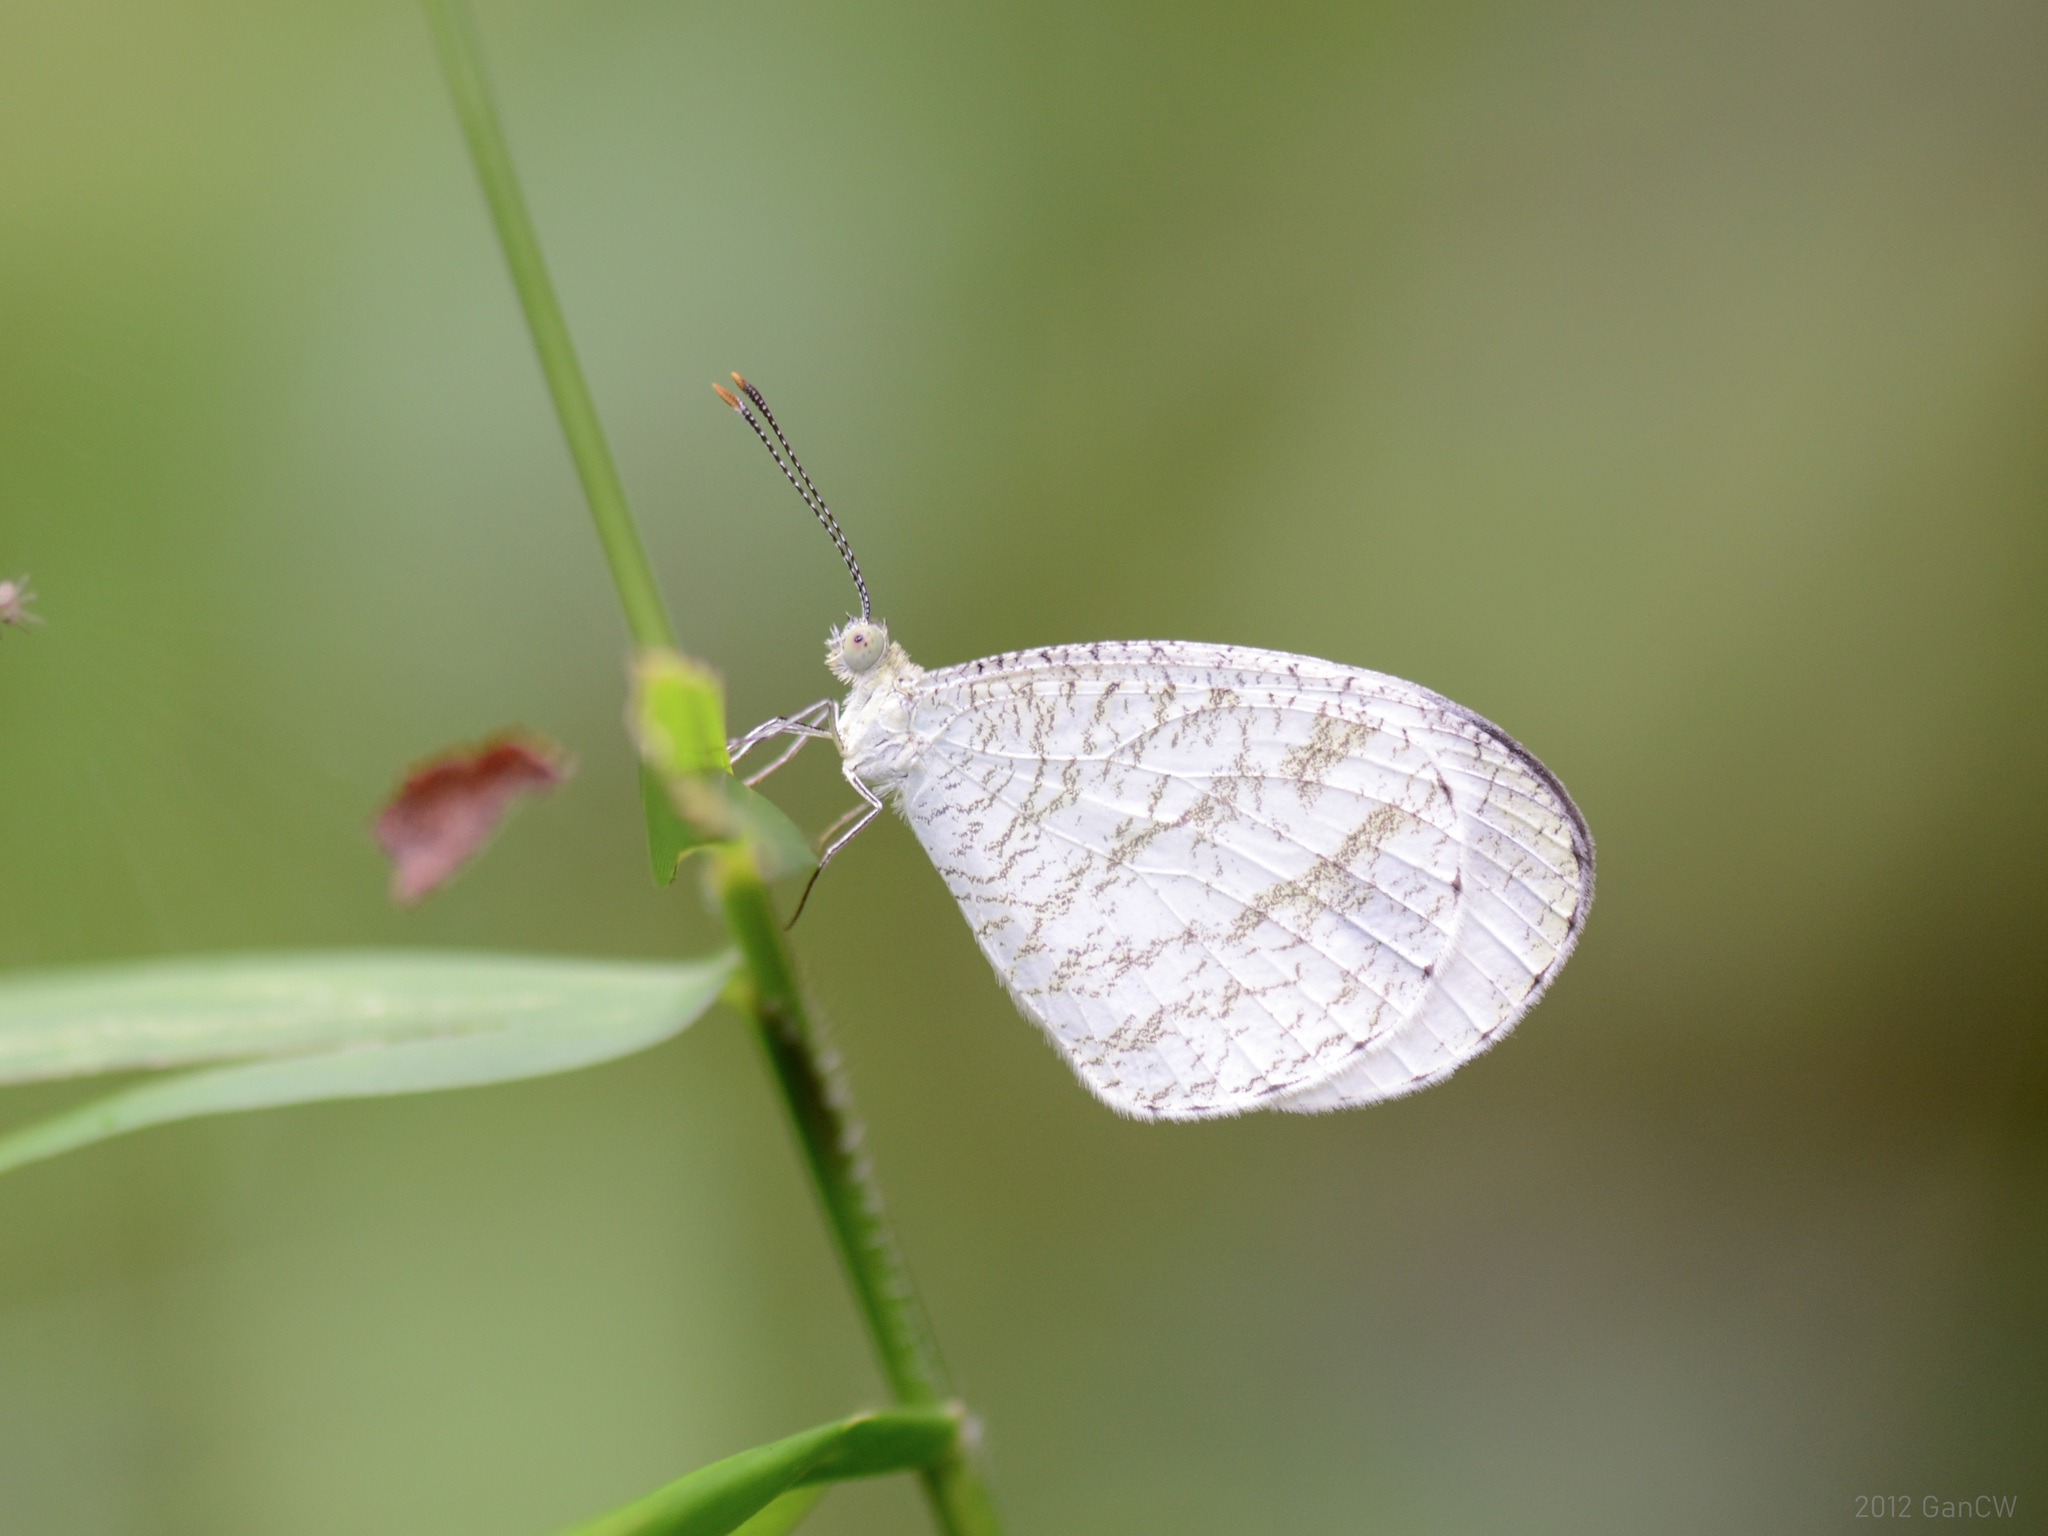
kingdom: Animalia
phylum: Arthropoda
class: Insecta
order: Lepidoptera
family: Pieridae
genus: Leptosia
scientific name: Leptosia nina
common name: Psyche
